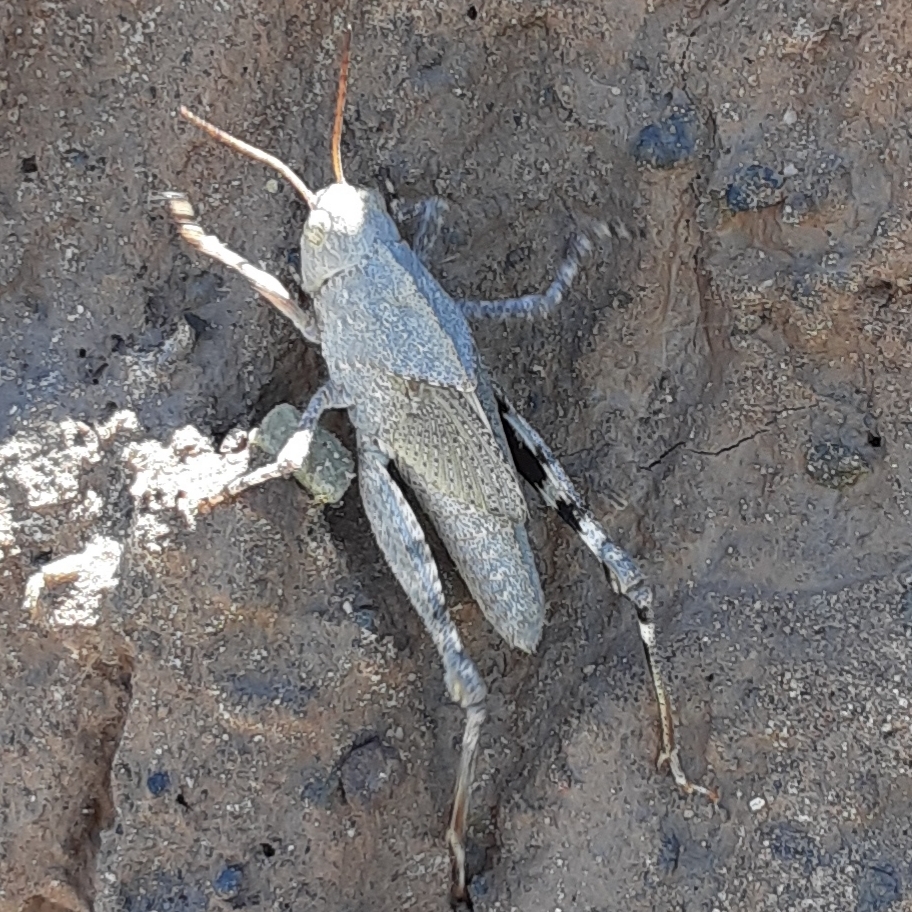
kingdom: Animalia
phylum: Arthropoda
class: Insecta
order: Orthoptera
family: Acrididae
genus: Dissosteira
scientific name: Dissosteira carolina
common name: Carolina grasshopper
